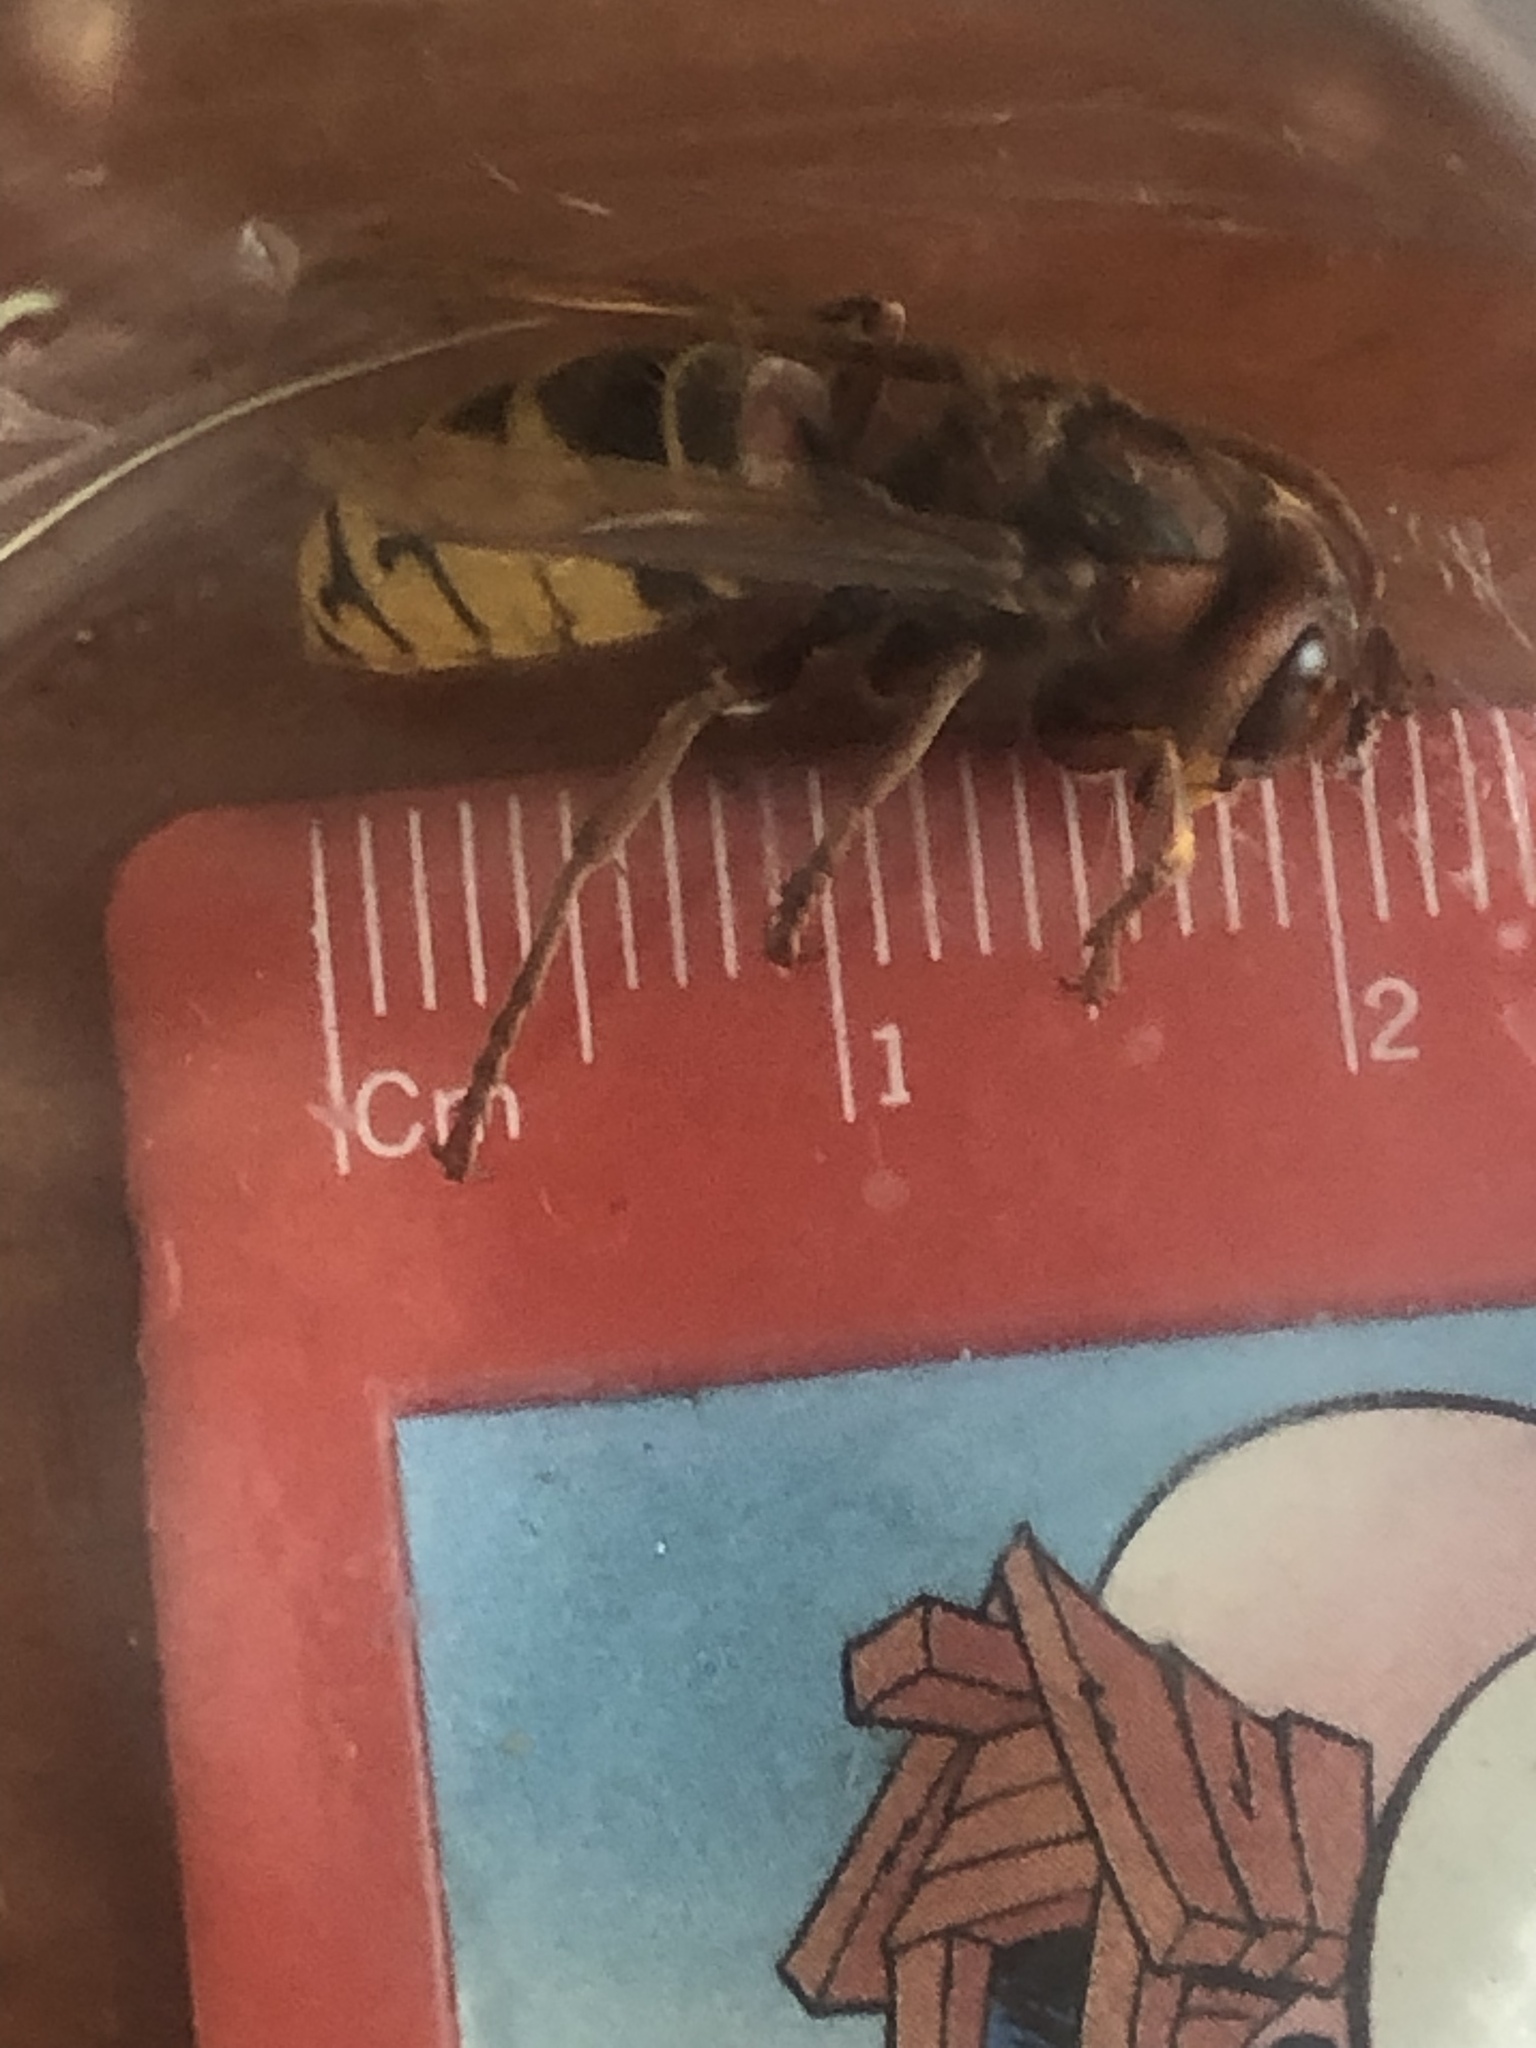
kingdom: Animalia
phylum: Arthropoda
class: Insecta
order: Hymenoptera
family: Vespidae
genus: Vespa
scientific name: Vespa crabro
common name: Hornet
